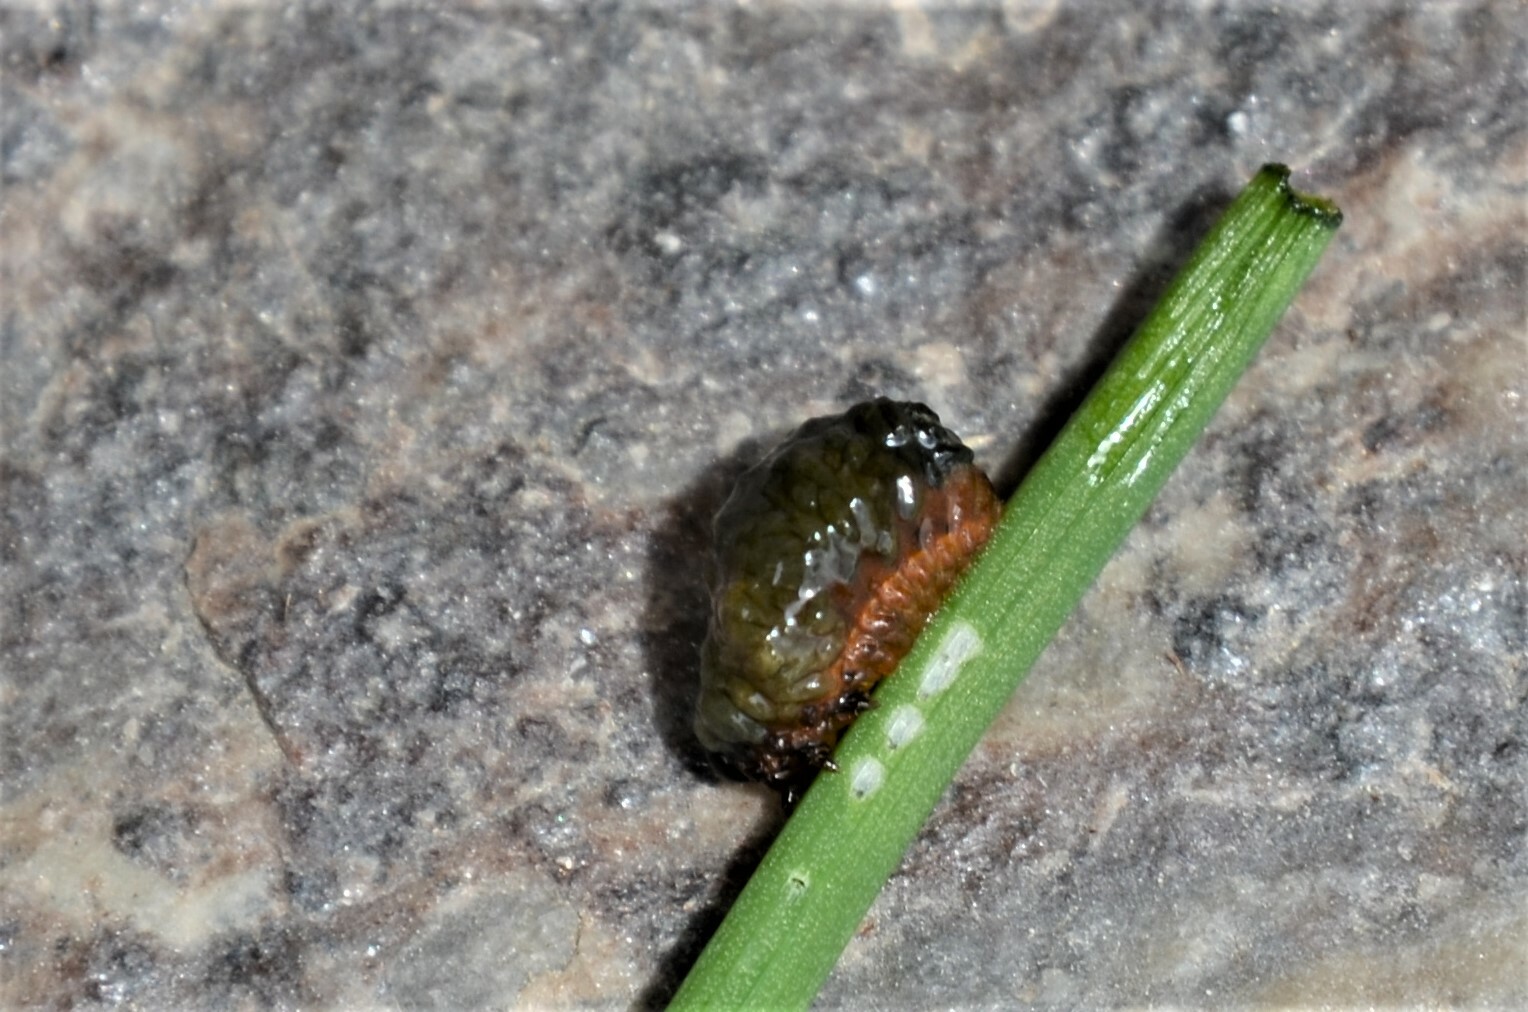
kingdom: Animalia
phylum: Arthropoda
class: Insecta
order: Coleoptera
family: Chrysomelidae
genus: Lilioceris
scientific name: Lilioceris merdigera
